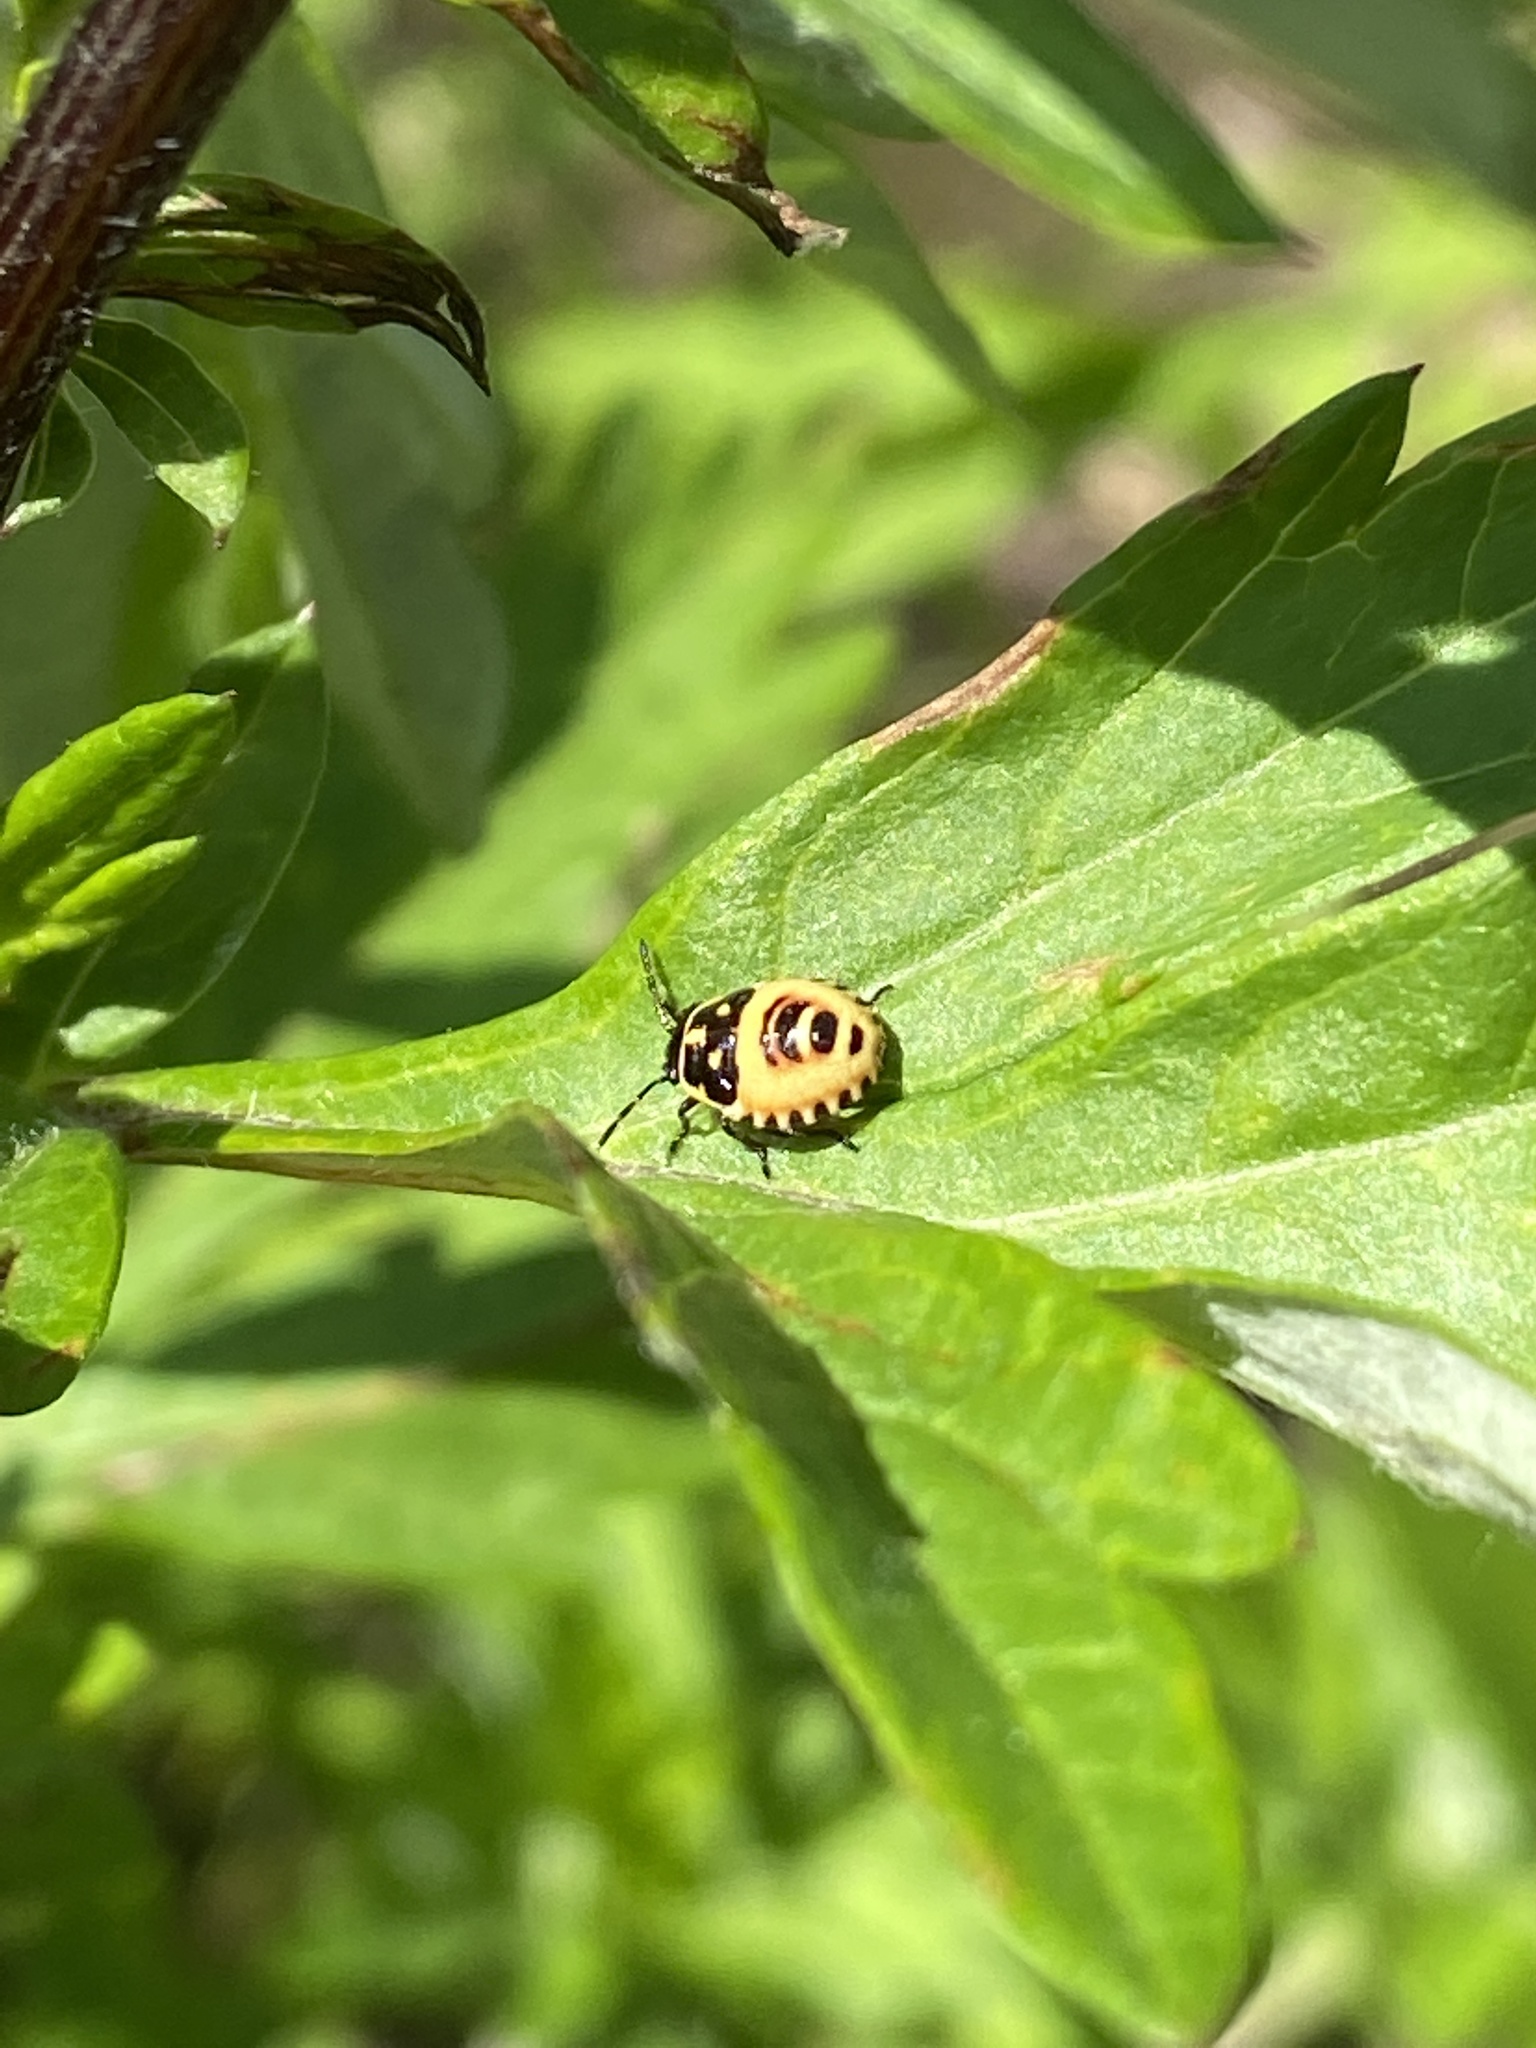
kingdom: Animalia
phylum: Arthropoda
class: Insecta
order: Hemiptera
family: Pentatomidae
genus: Eurydema
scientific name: Eurydema oleracea
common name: Cabbage bug
